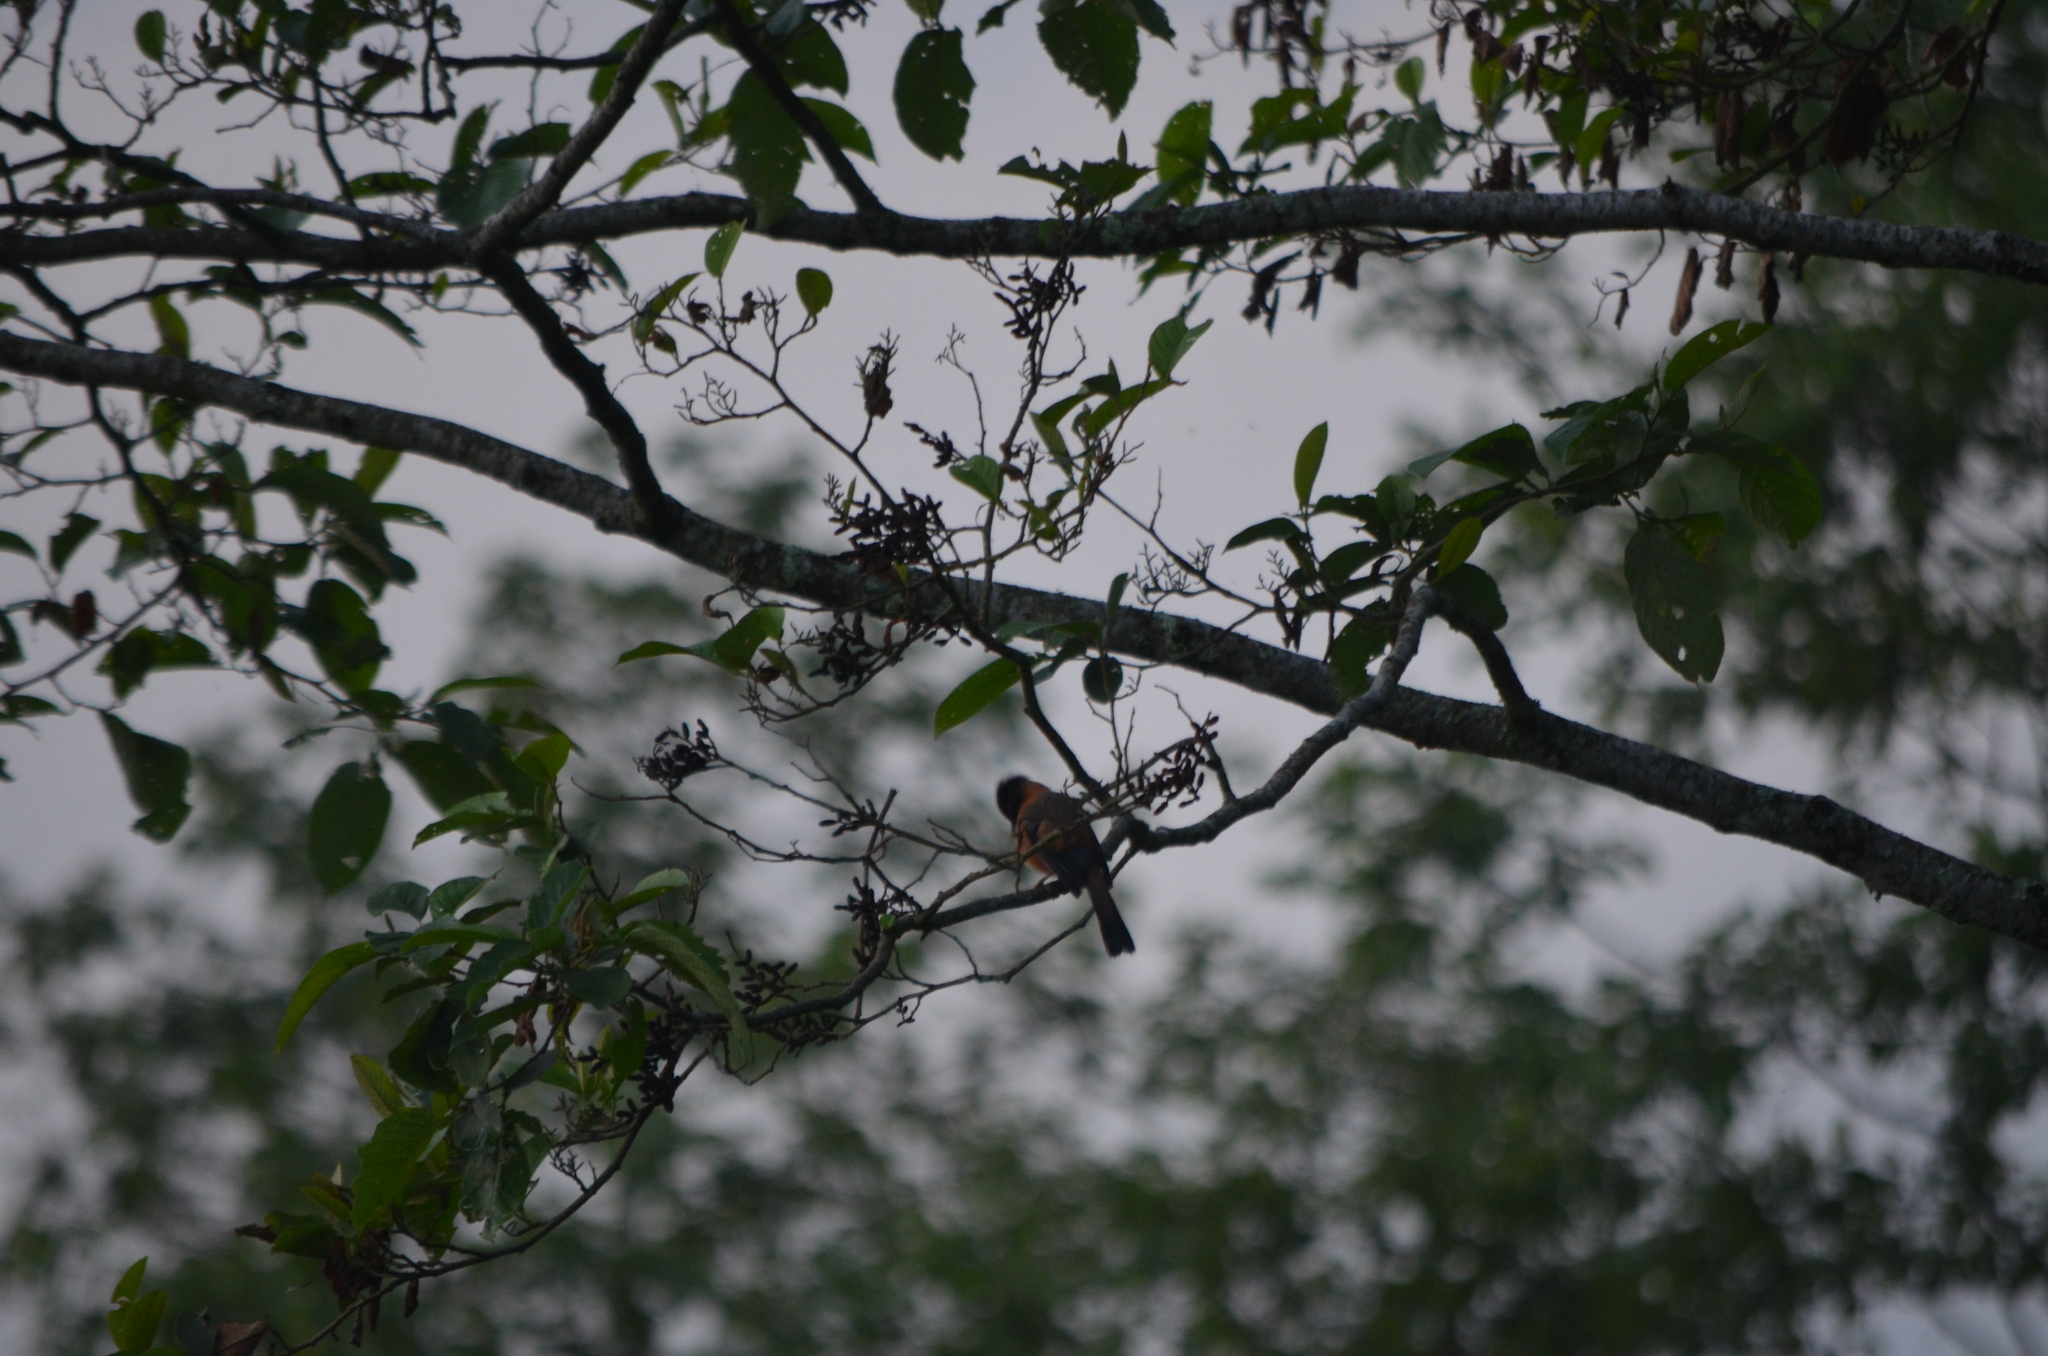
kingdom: Animalia
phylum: Chordata
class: Aves
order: Passeriformes
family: Leiothrichidae
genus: Heterophasia
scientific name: Heterophasia capistrata
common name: Rufous sibia
